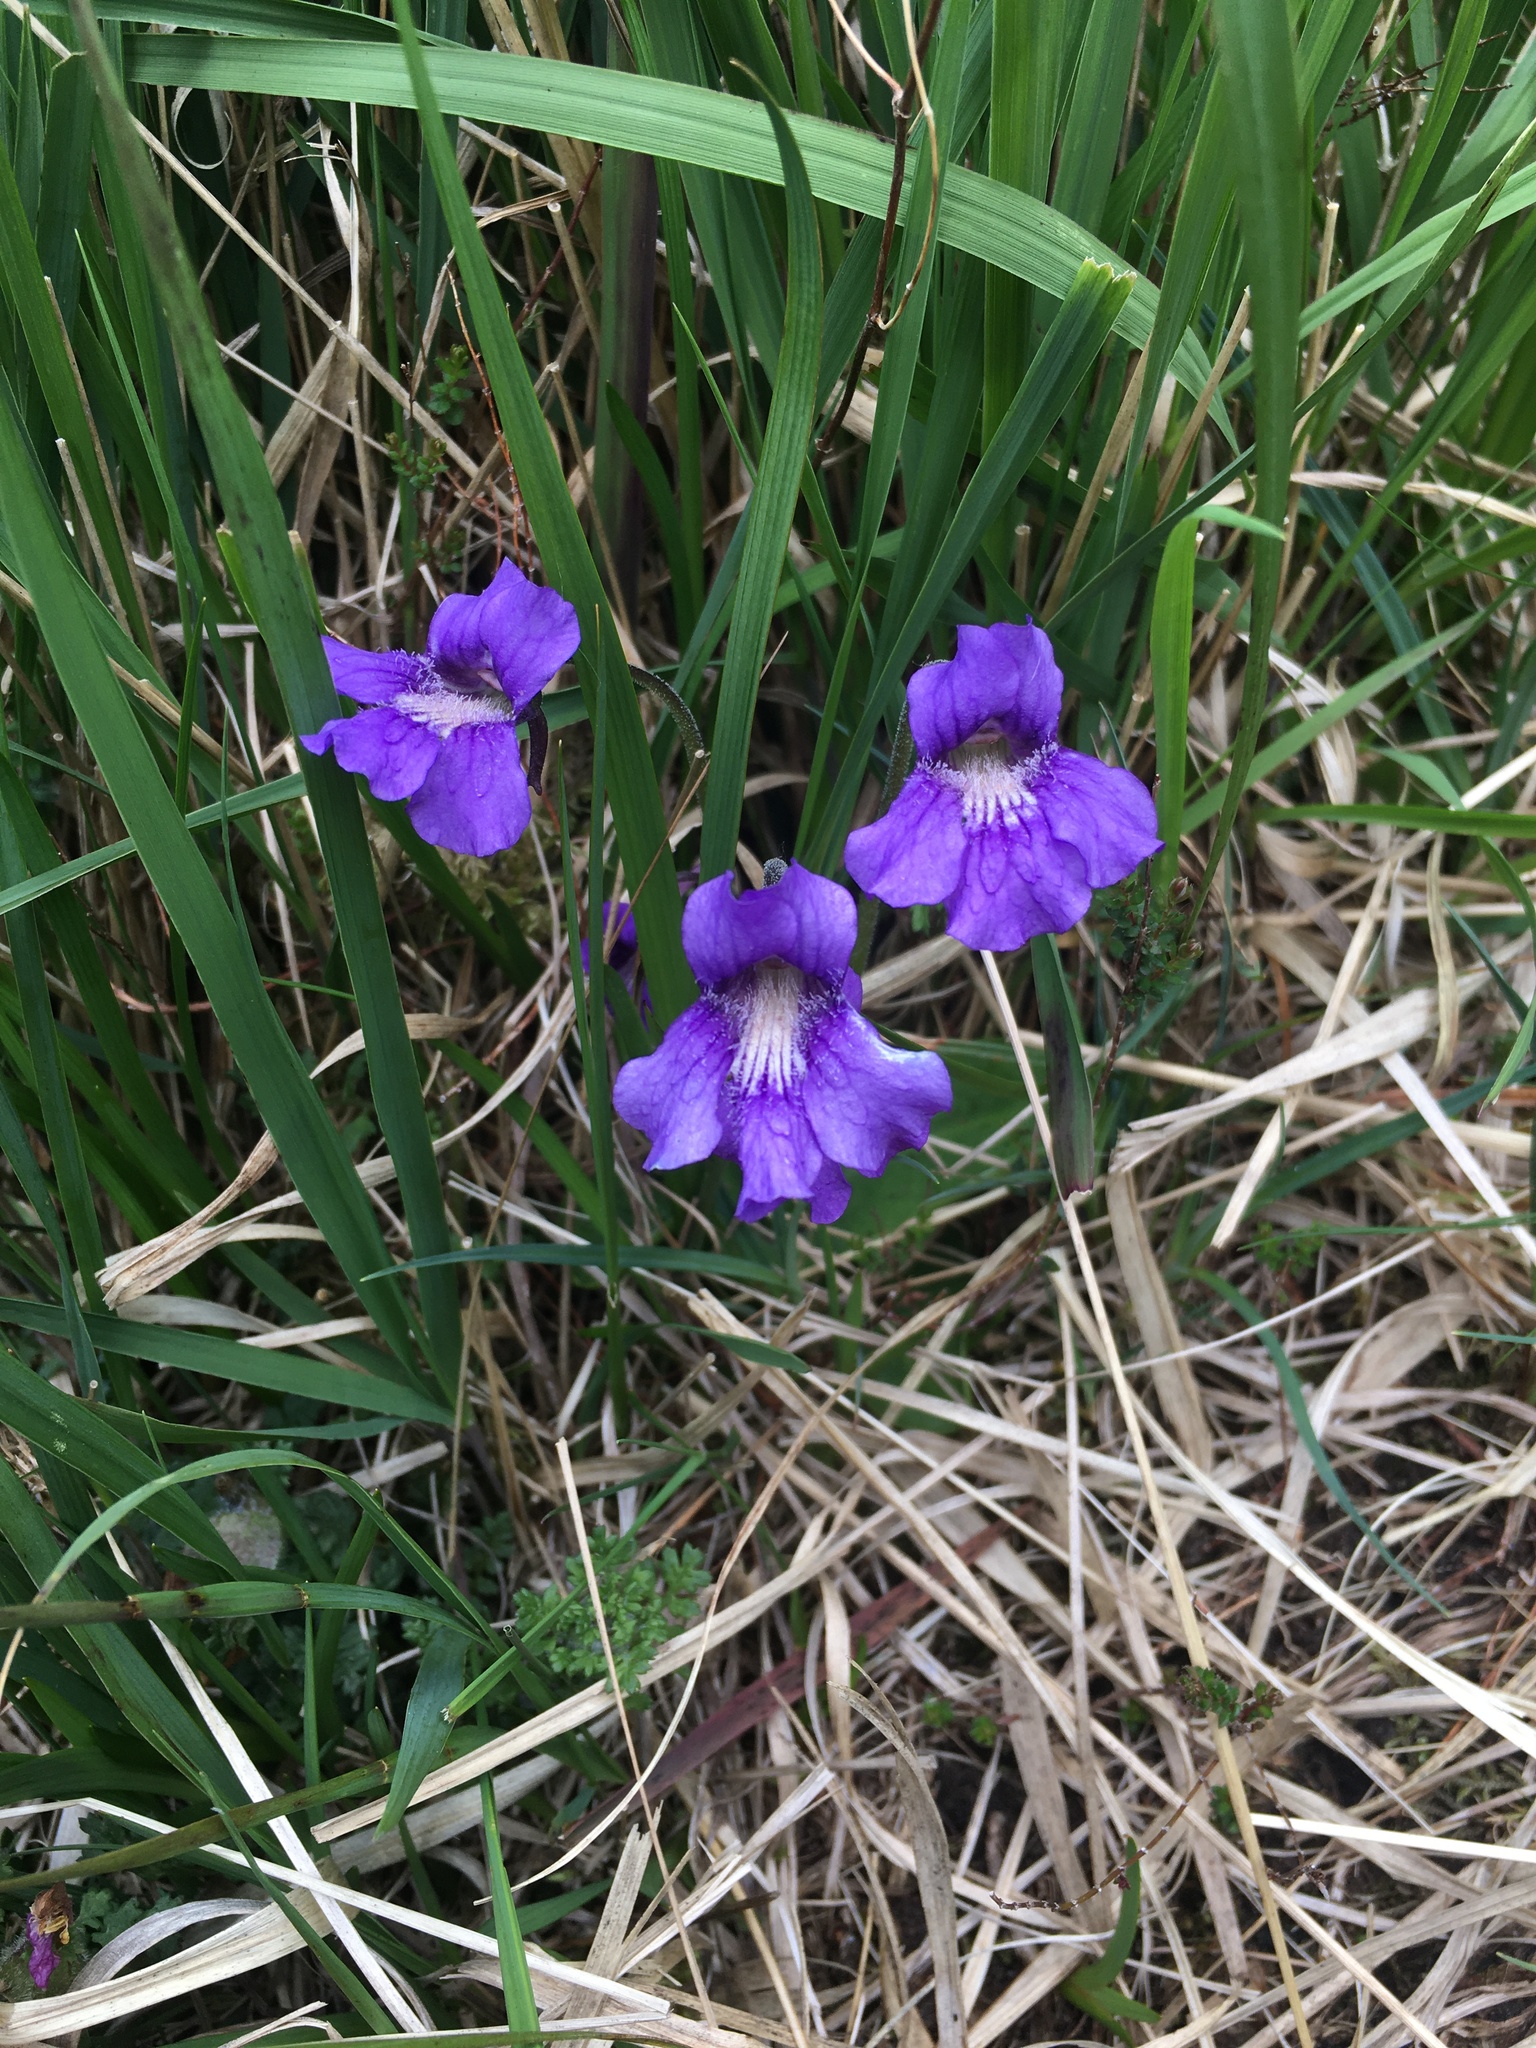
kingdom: Plantae
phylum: Tracheophyta
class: Magnoliopsida
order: Lamiales
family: Lentibulariaceae
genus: Pinguicula
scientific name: Pinguicula grandiflora
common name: Large-flowered butterwort
